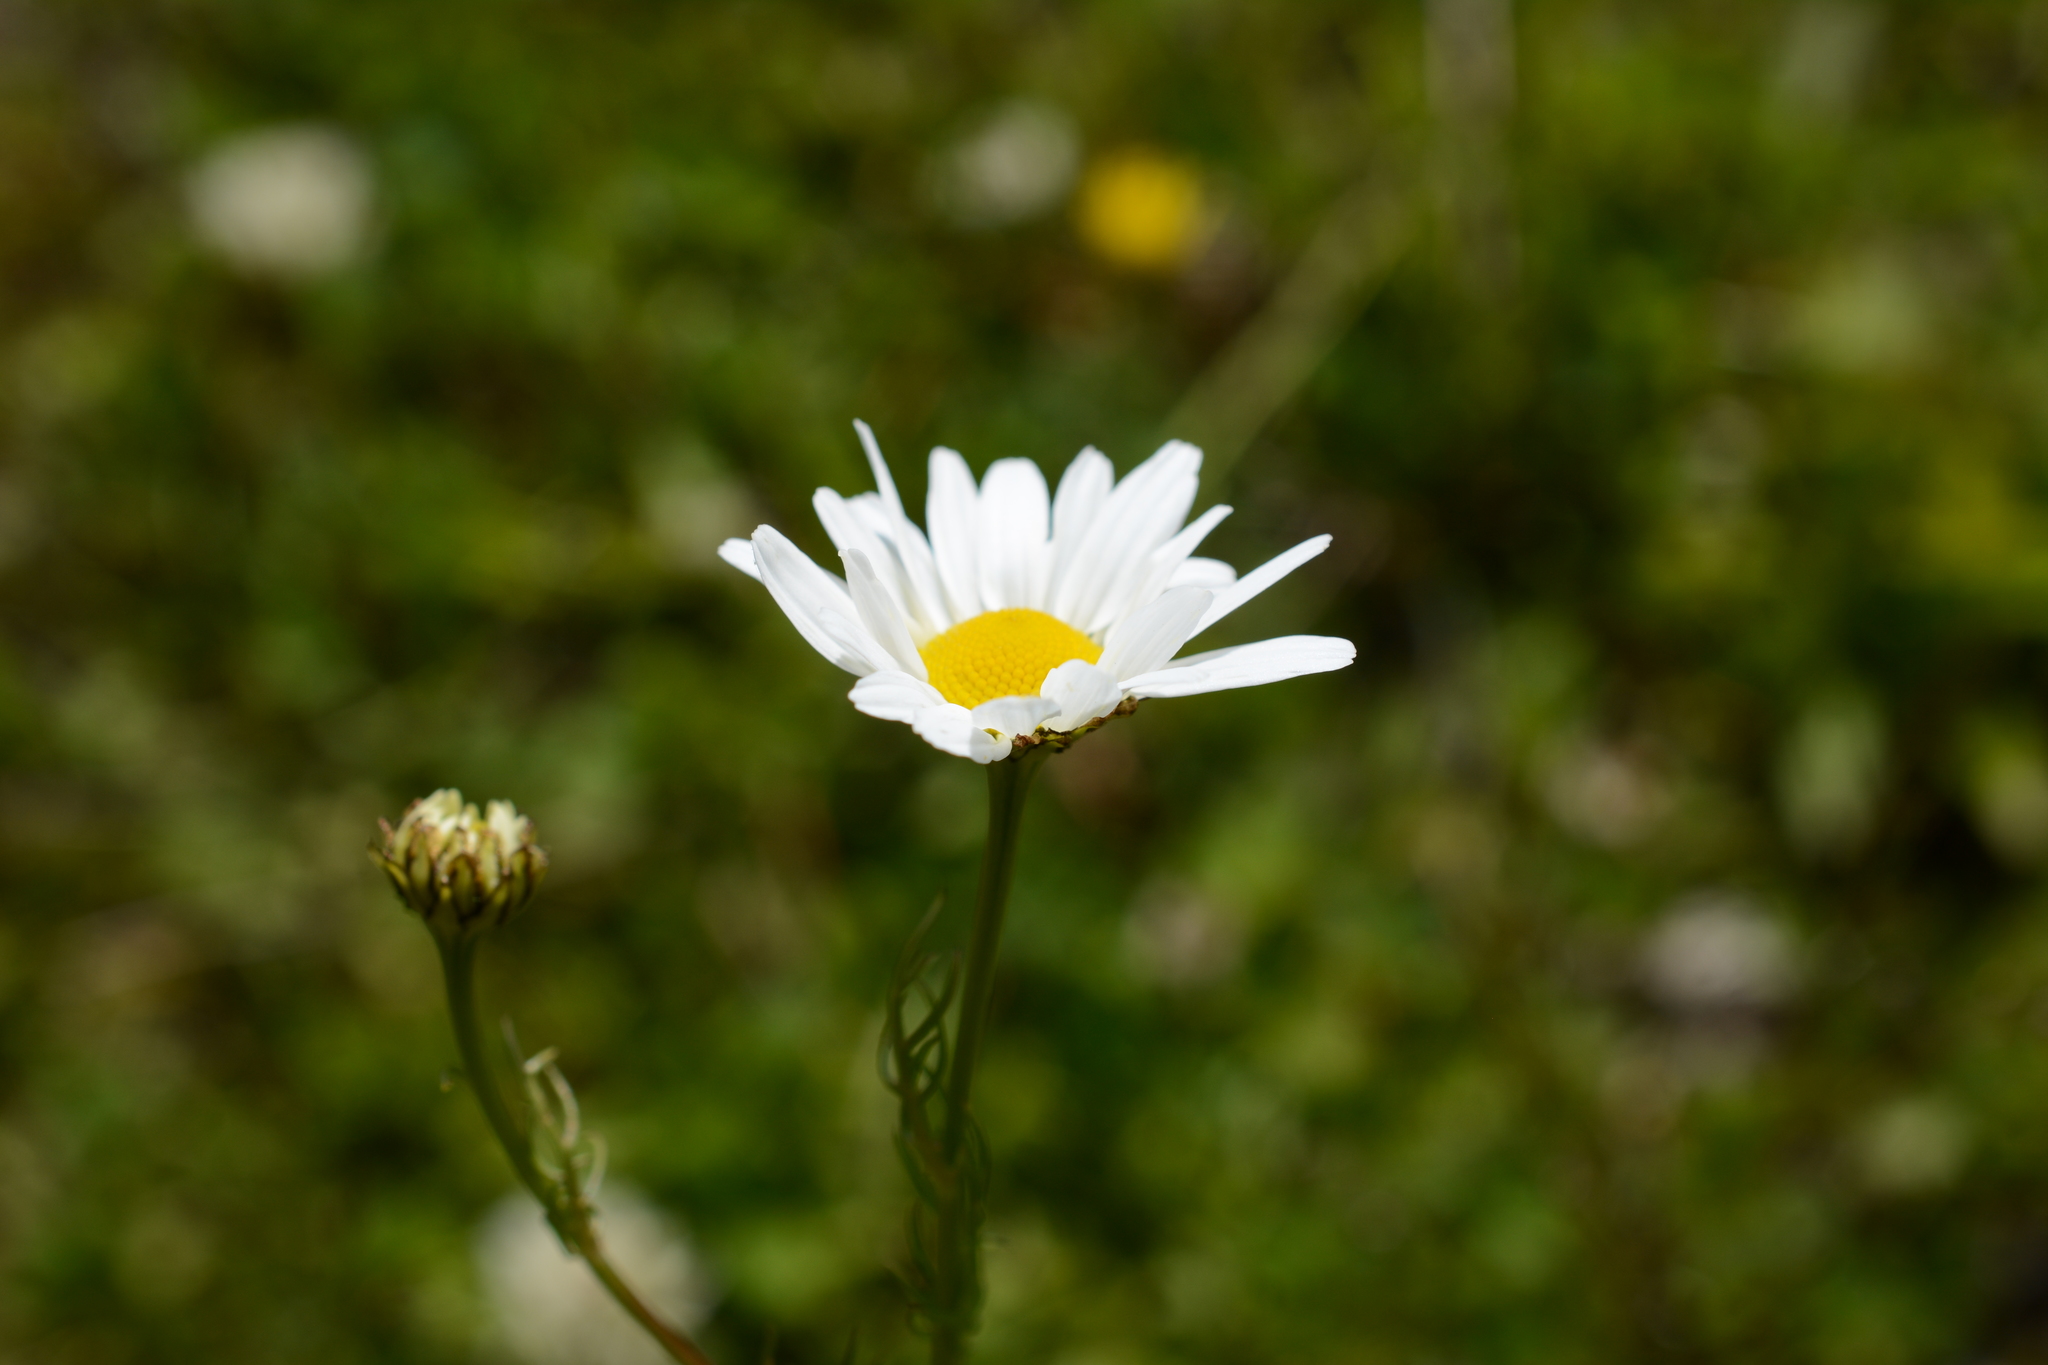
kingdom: Plantae
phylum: Tracheophyta
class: Magnoliopsida
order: Asterales
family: Asteraceae
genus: Tripleurospermum
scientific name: Tripleurospermum inodorum
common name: Scentless mayweed
